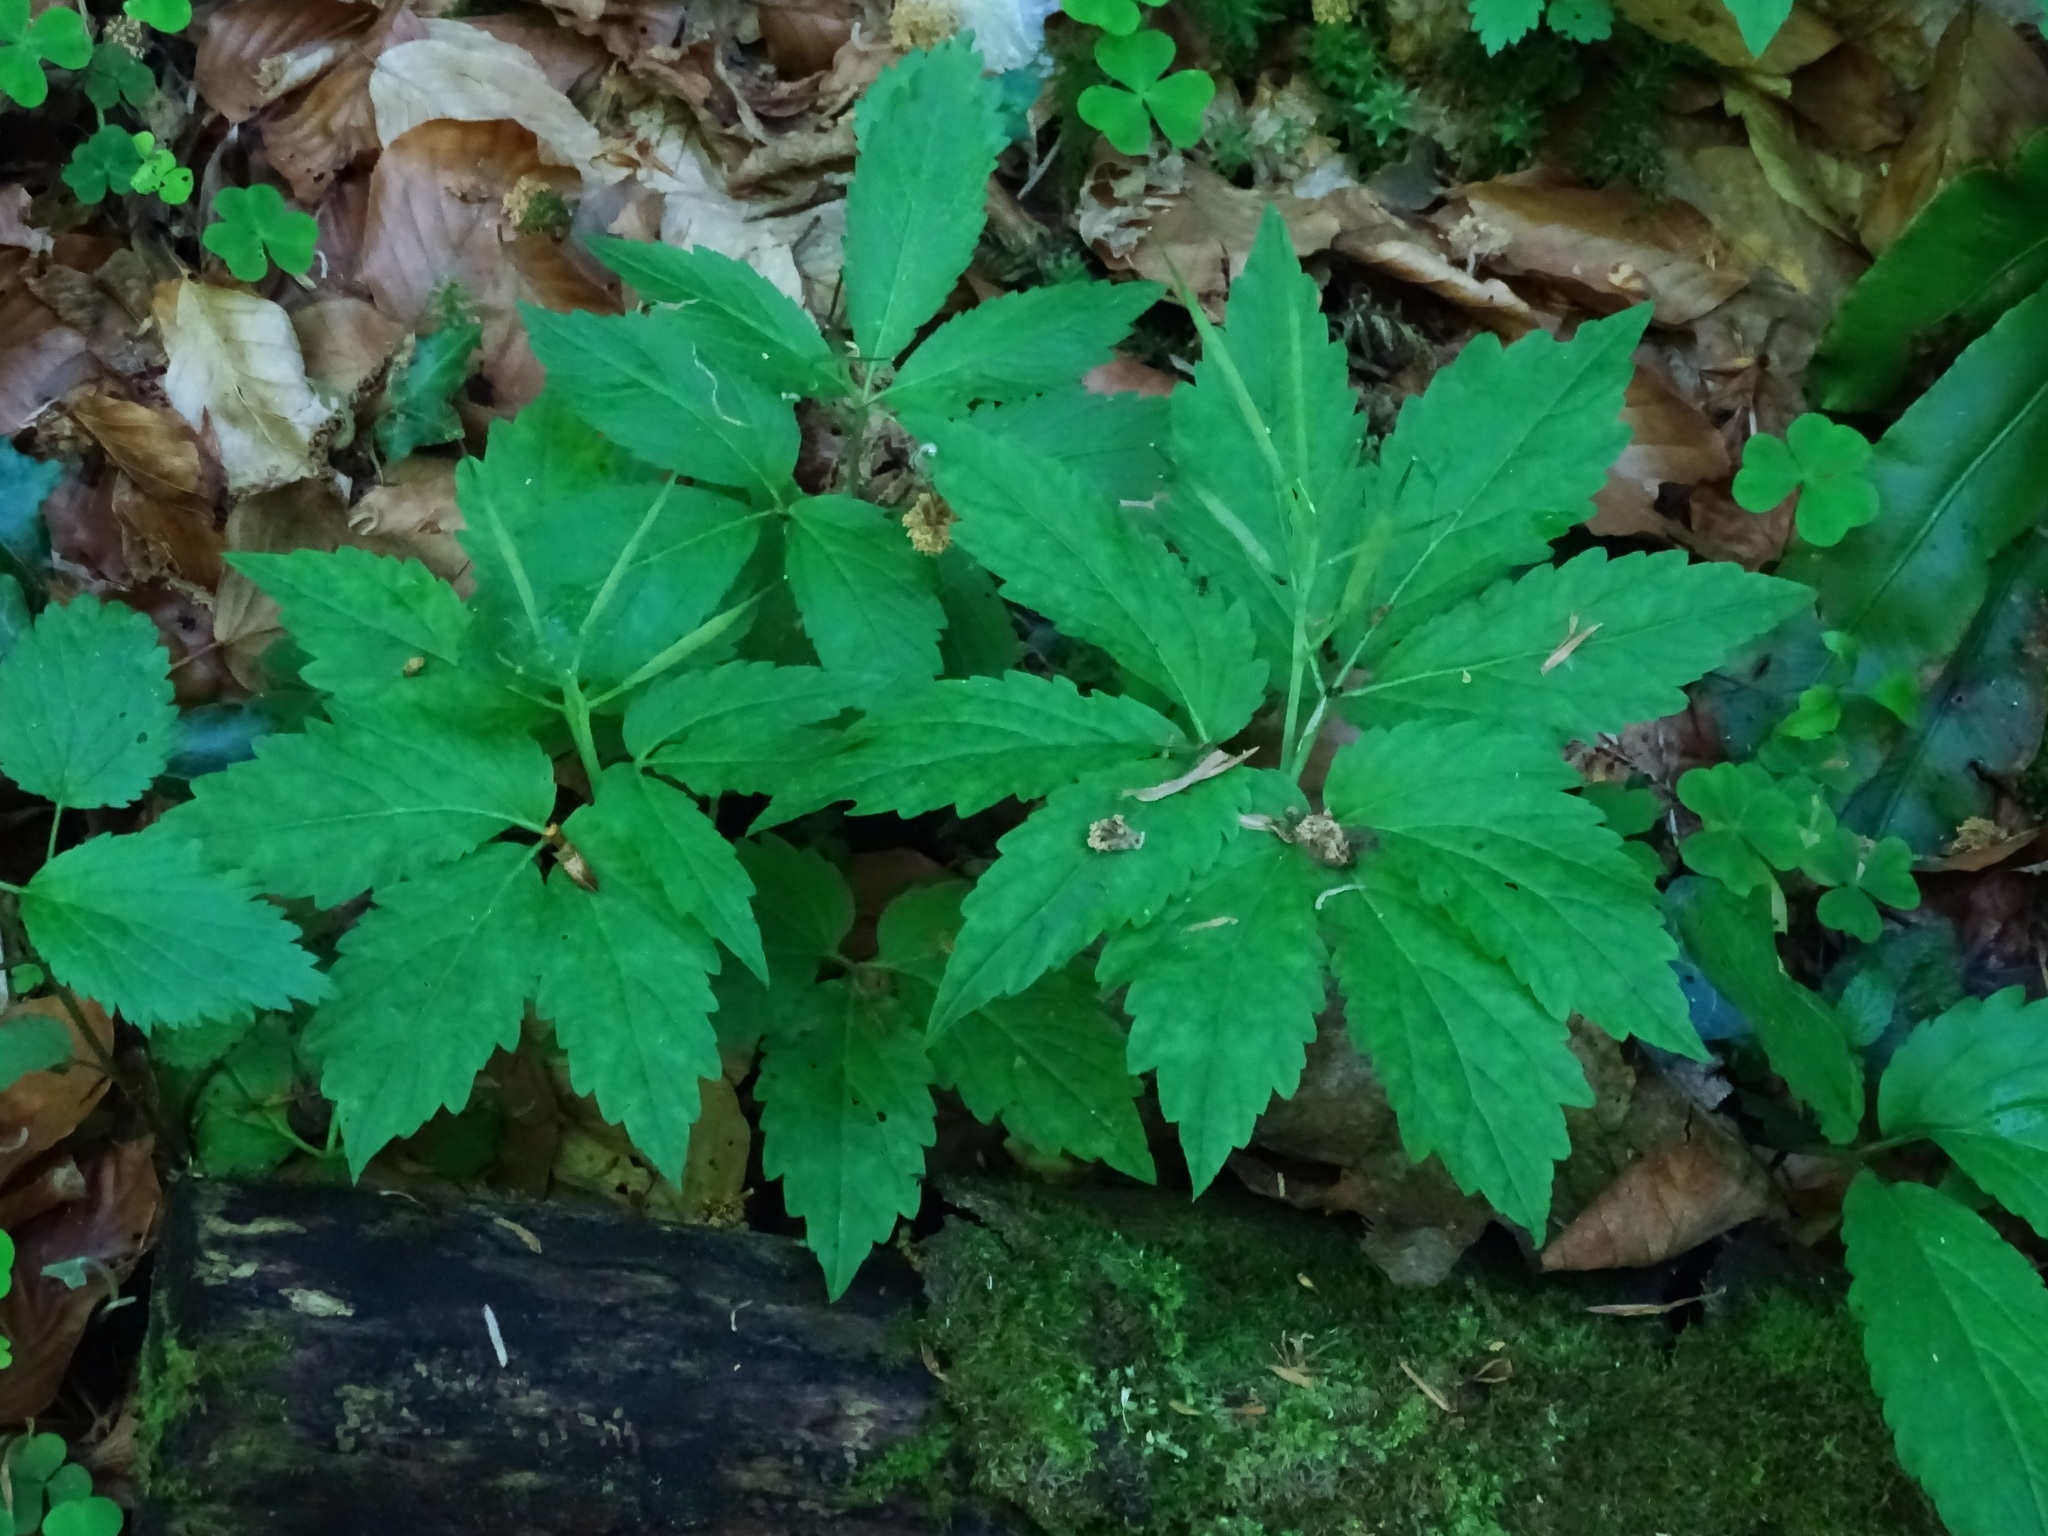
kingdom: Plantae
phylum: Tracheophyta
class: Magnoliopsida
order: Brassicales
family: Brassicaceae
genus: Cardamine
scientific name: Cardamine enneaphyllos
